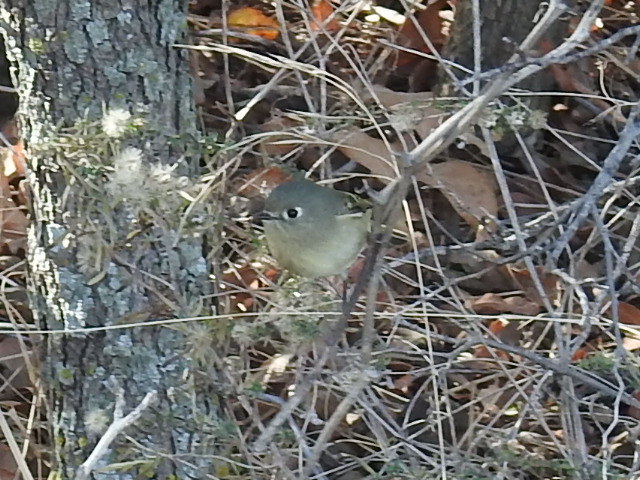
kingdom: Animalia
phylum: Chordata
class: Aves
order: Passeriformes
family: Regulidae
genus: Regulus
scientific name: Regulus calendula
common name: Ruby-crowned kinglet
